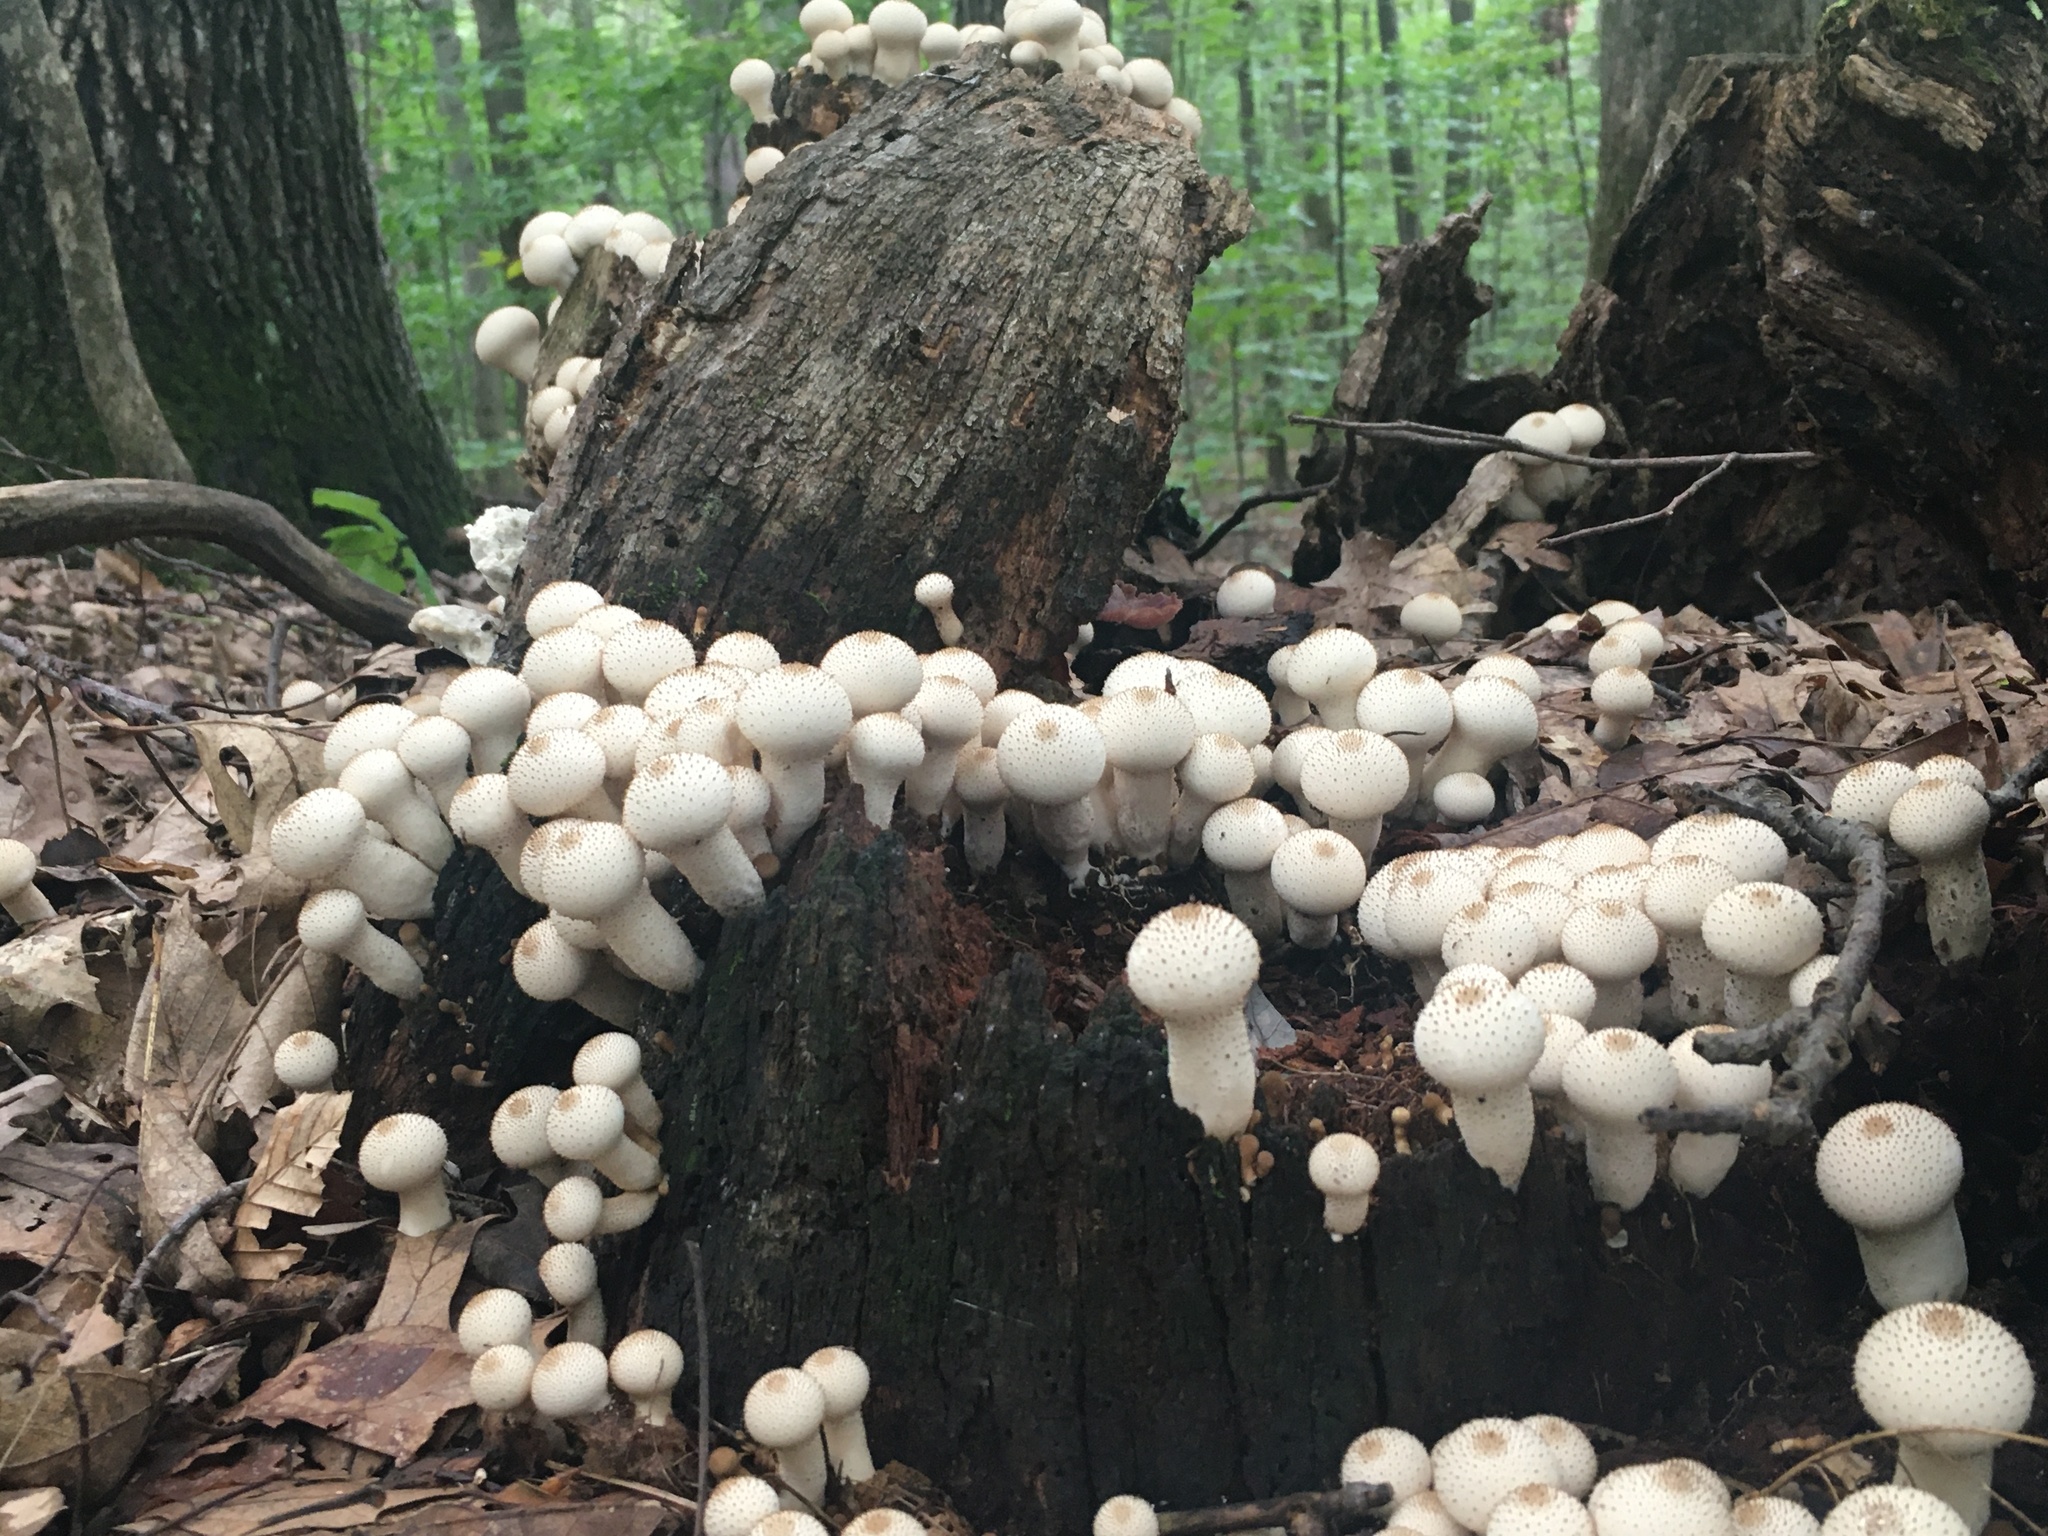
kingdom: Fungi
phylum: Basidiomycota
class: Agaricomycetes
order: Agaricales
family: Lycoperdaceae
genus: Lycoperdon
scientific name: Lycoperdon perlatum
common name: Common puffball
